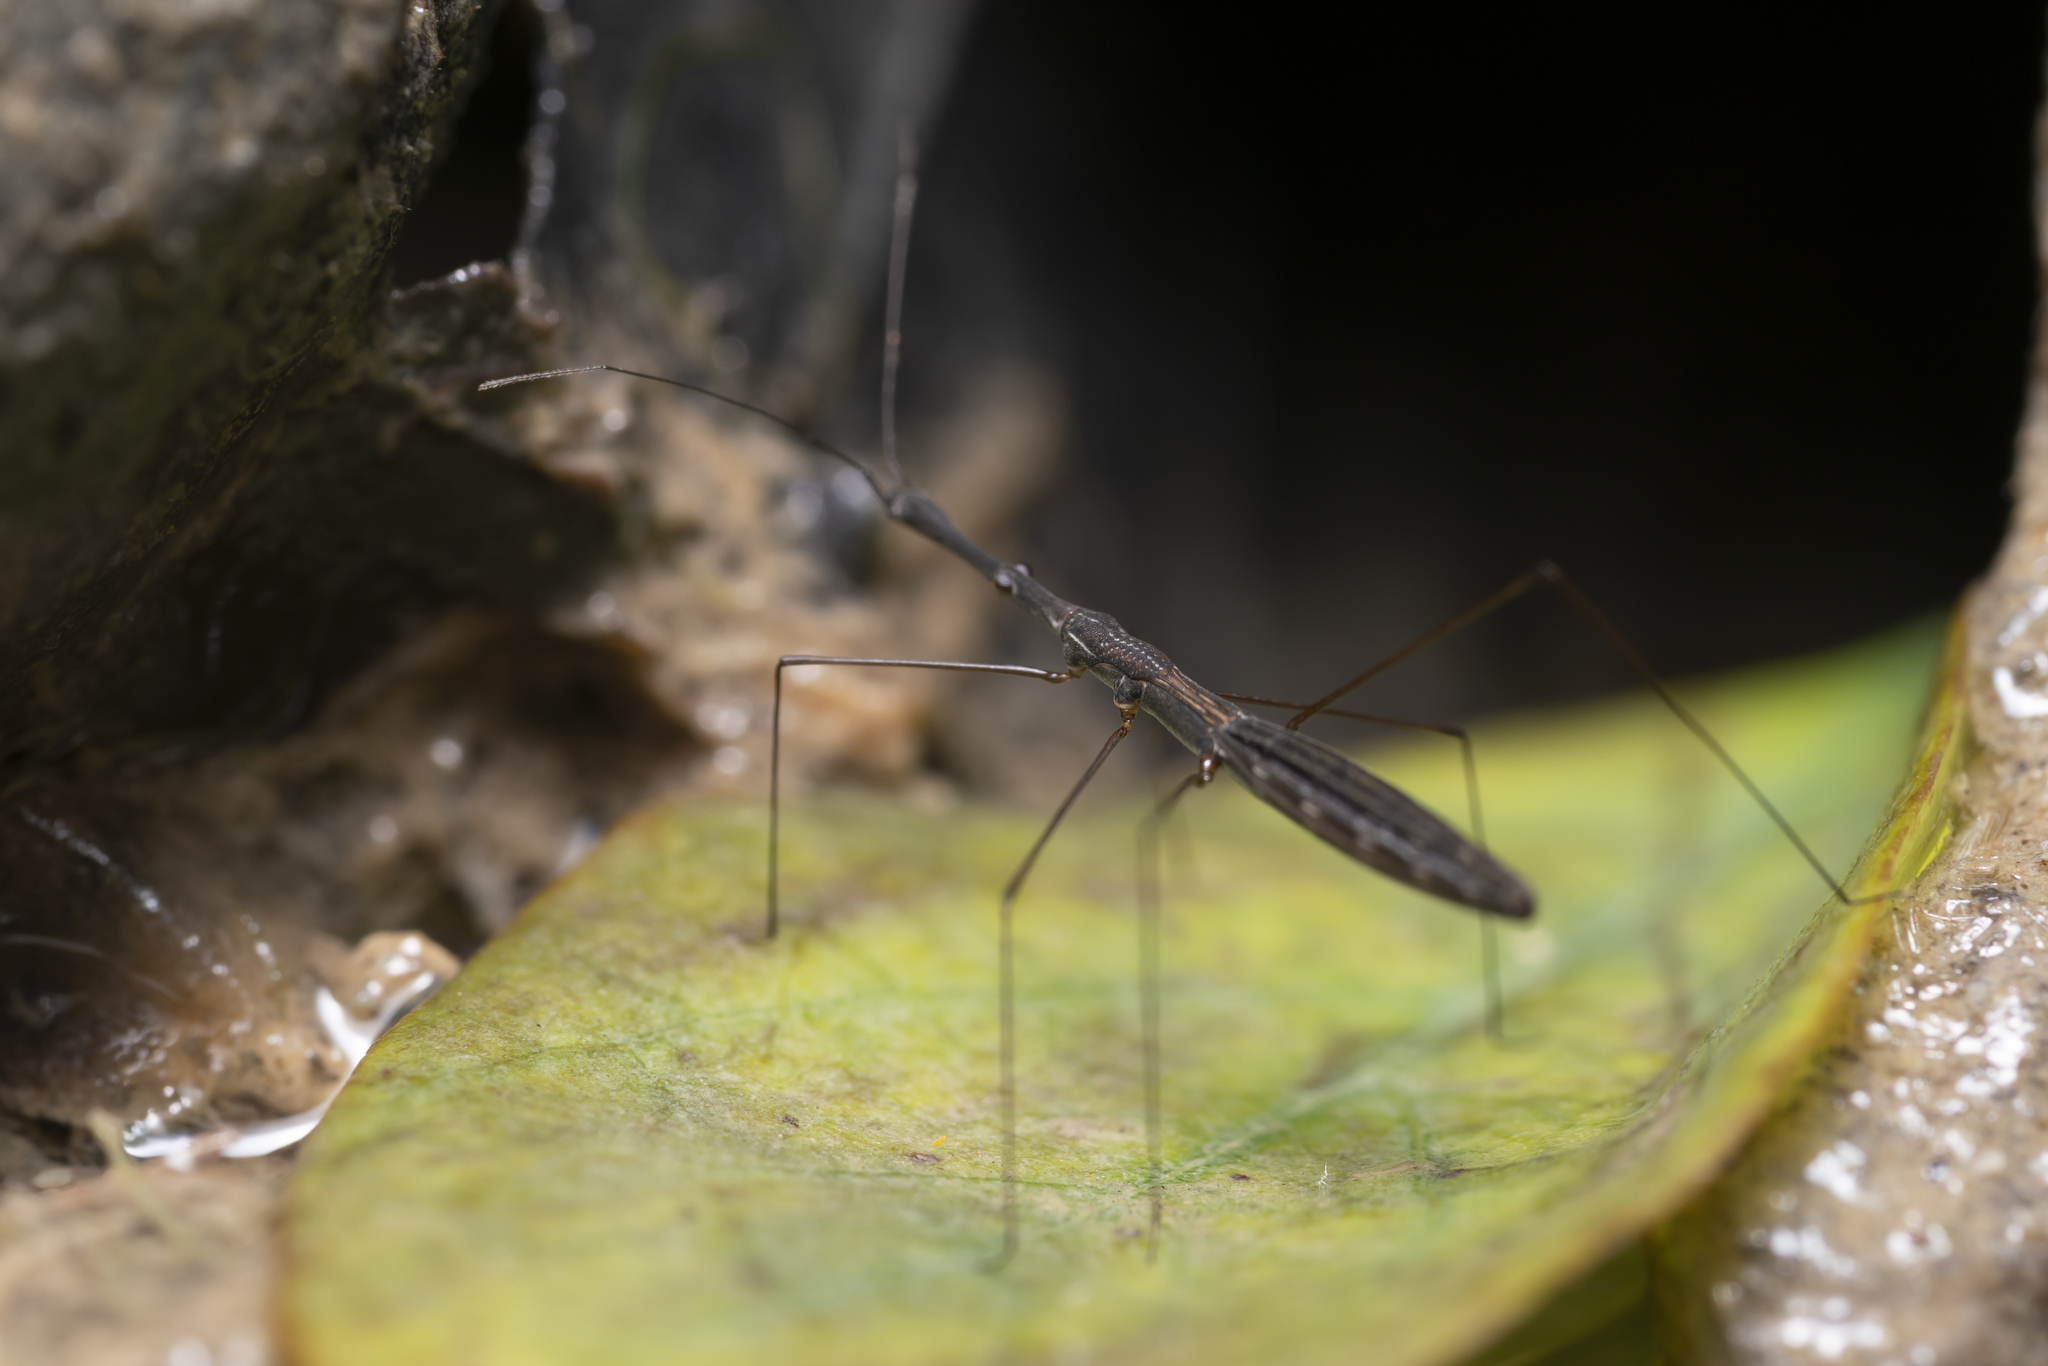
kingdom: Animalia
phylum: Arthropoda
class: Insecta
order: Hemiptera
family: Hydrometridae
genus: Hydrometra
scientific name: Hydrometra stagnorum
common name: Water measurer
